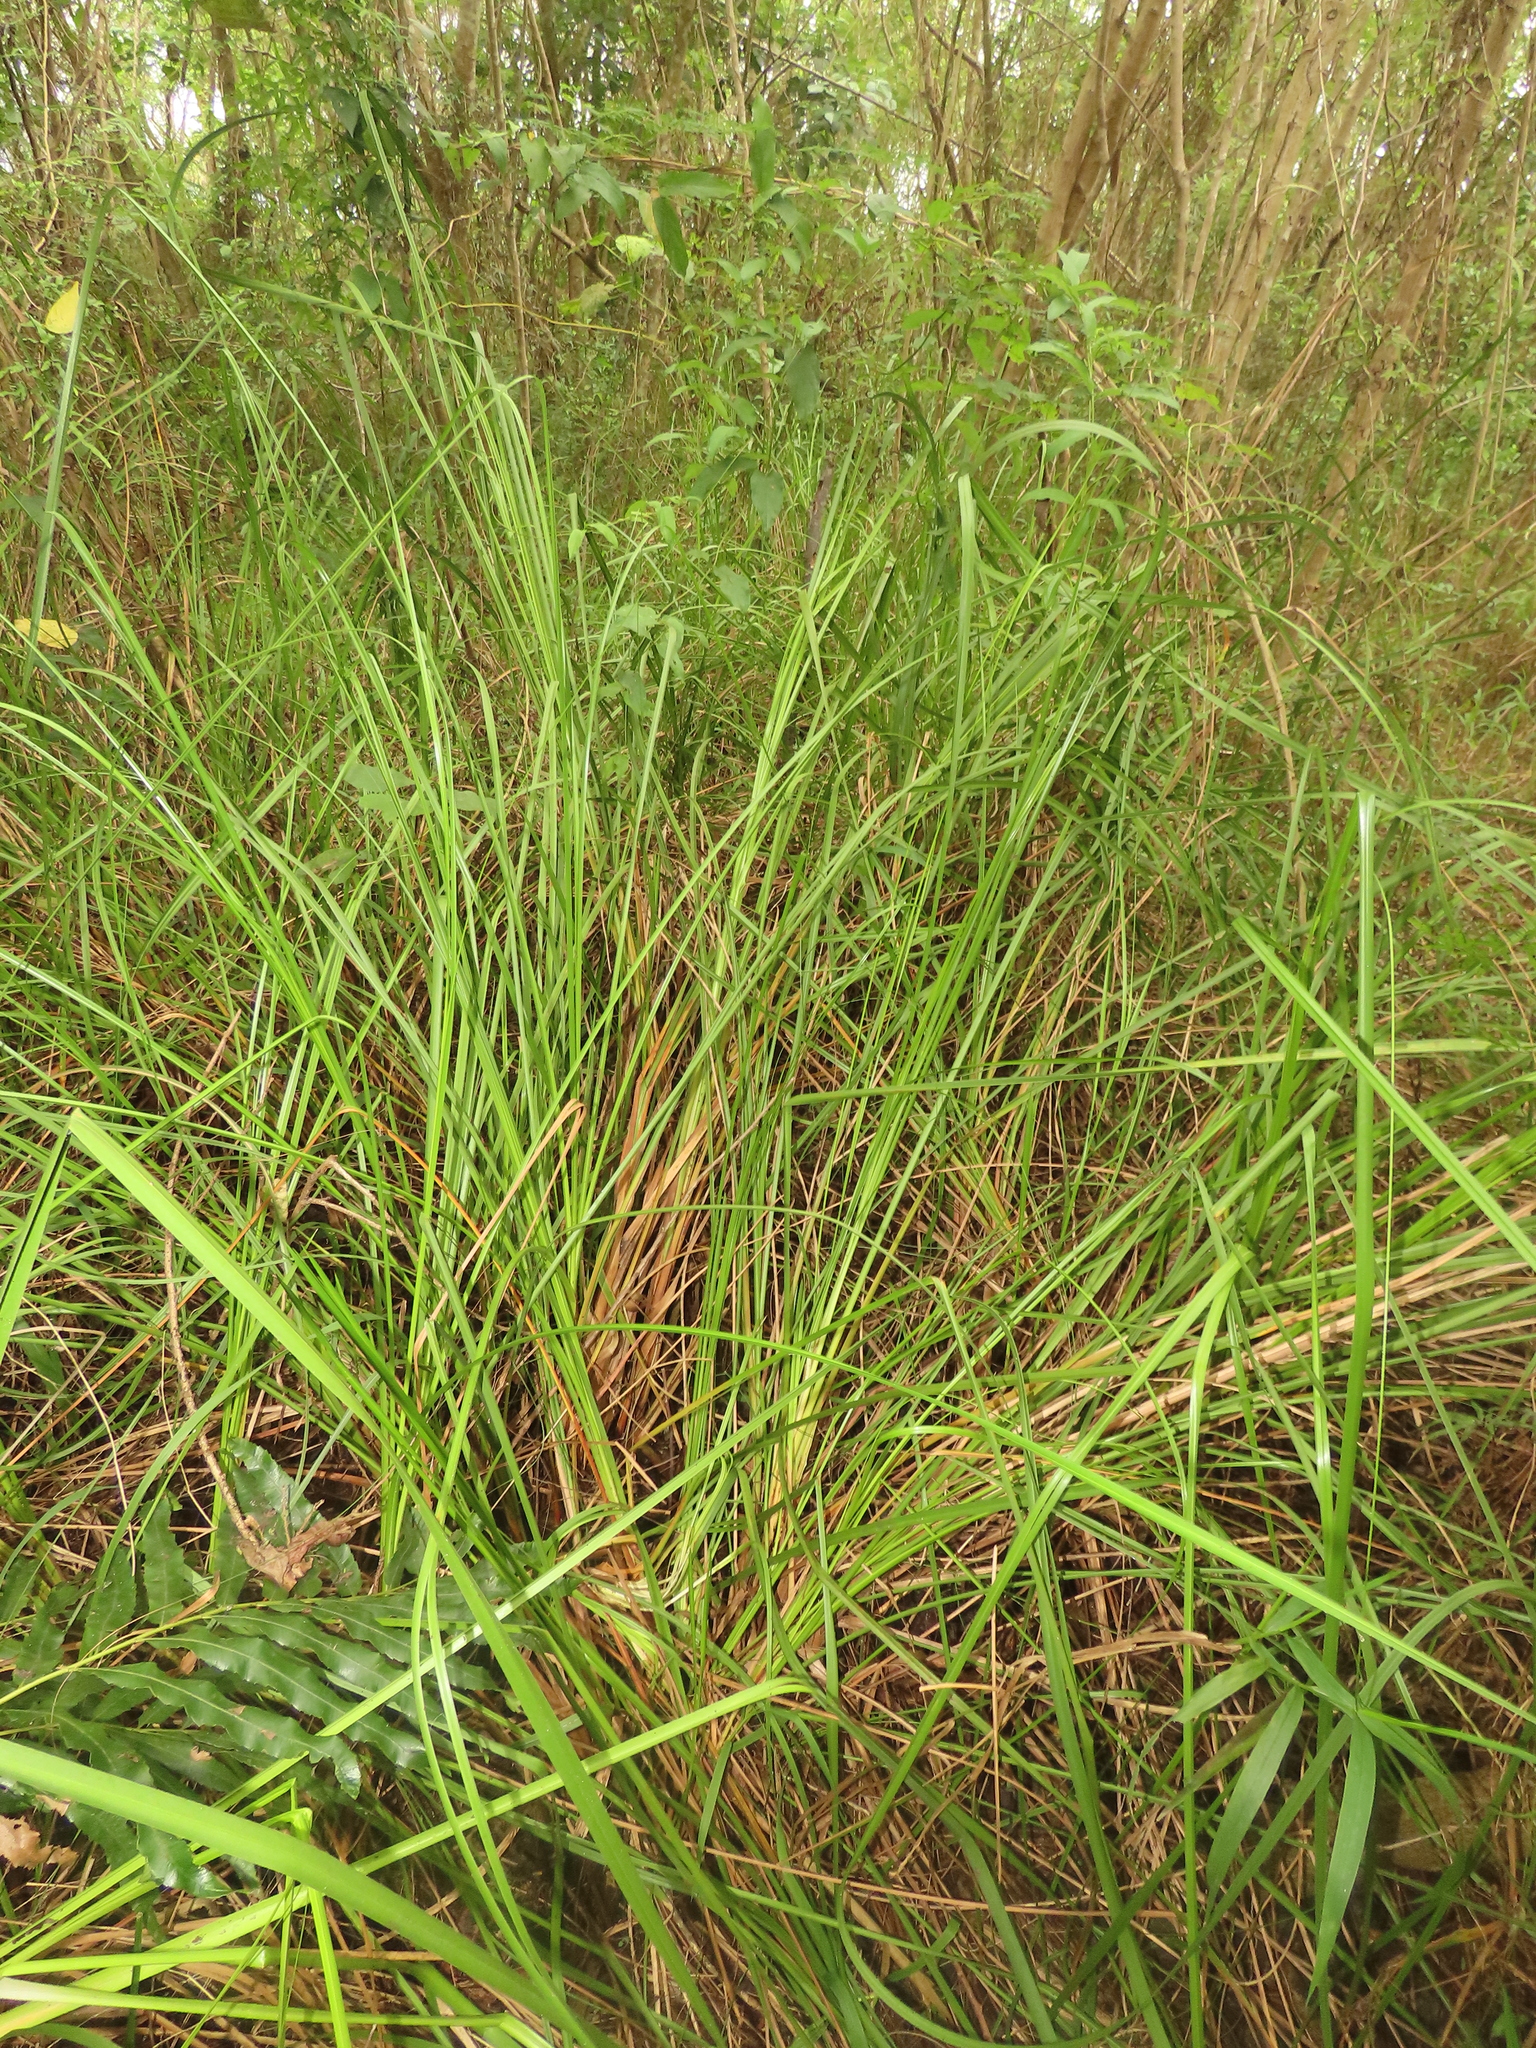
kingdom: Plantae
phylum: Tracheophyta
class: Liliopsida
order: Poales
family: Cyperaceae
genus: Cladium
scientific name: Cladium mariscus
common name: Great fen-sedge
